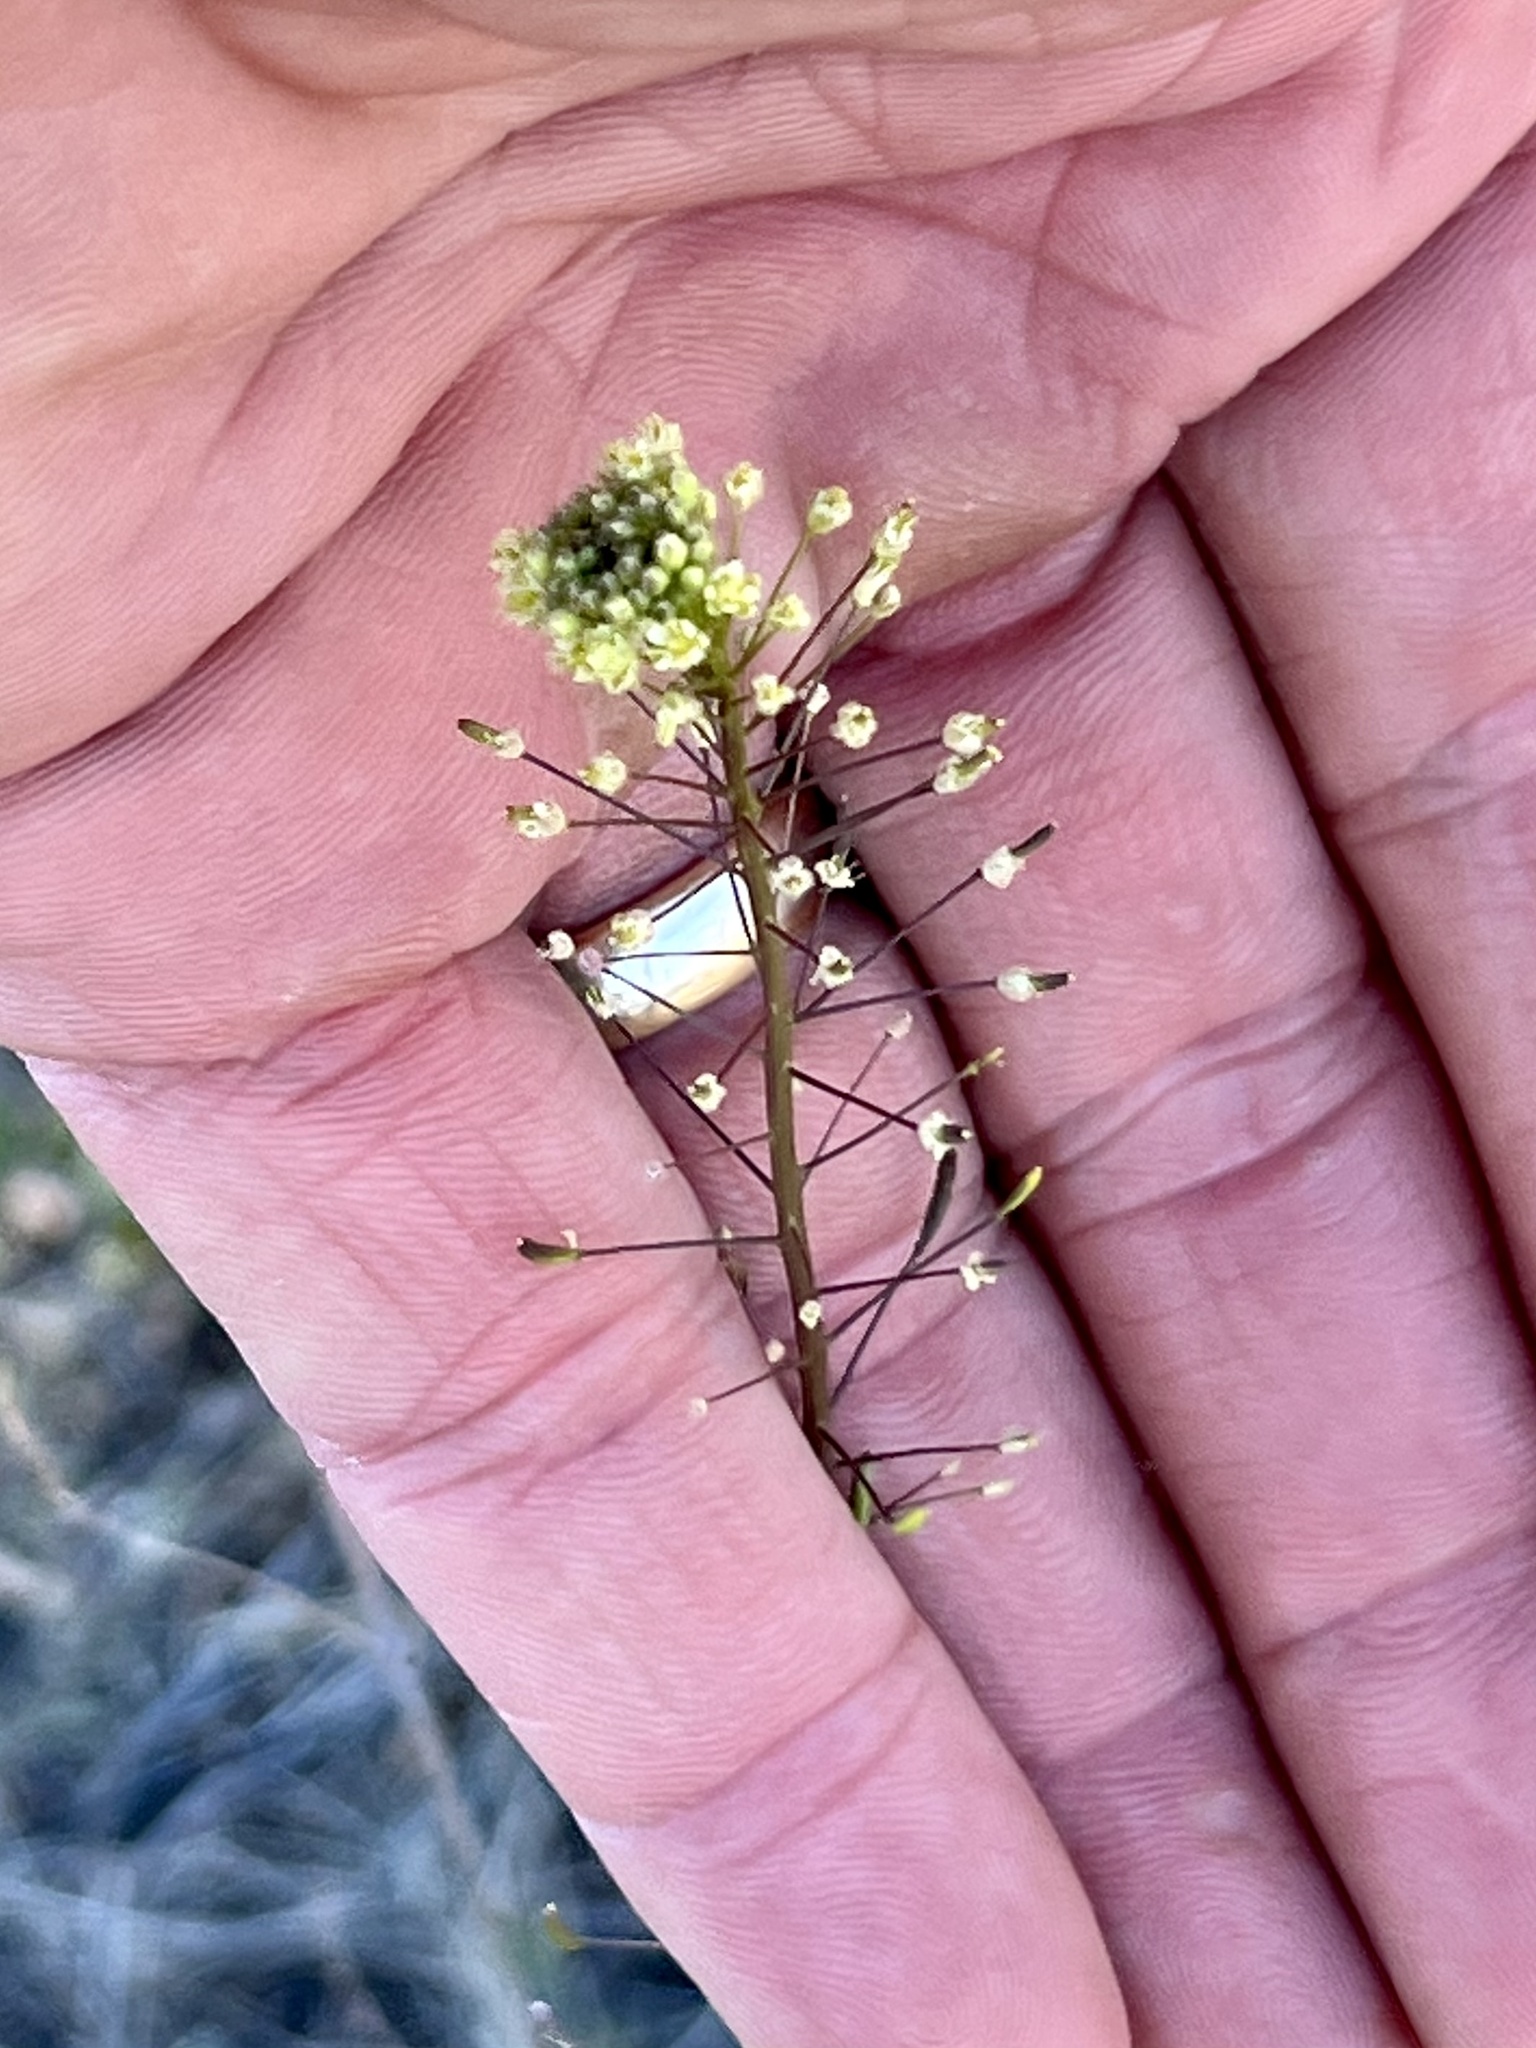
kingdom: Plantae
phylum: Tracheophyta
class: Magnoliopsida
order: Brassicales
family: Brassicaceae
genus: Descurainia
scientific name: Descurainia pinnata
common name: Western tansy mustard
